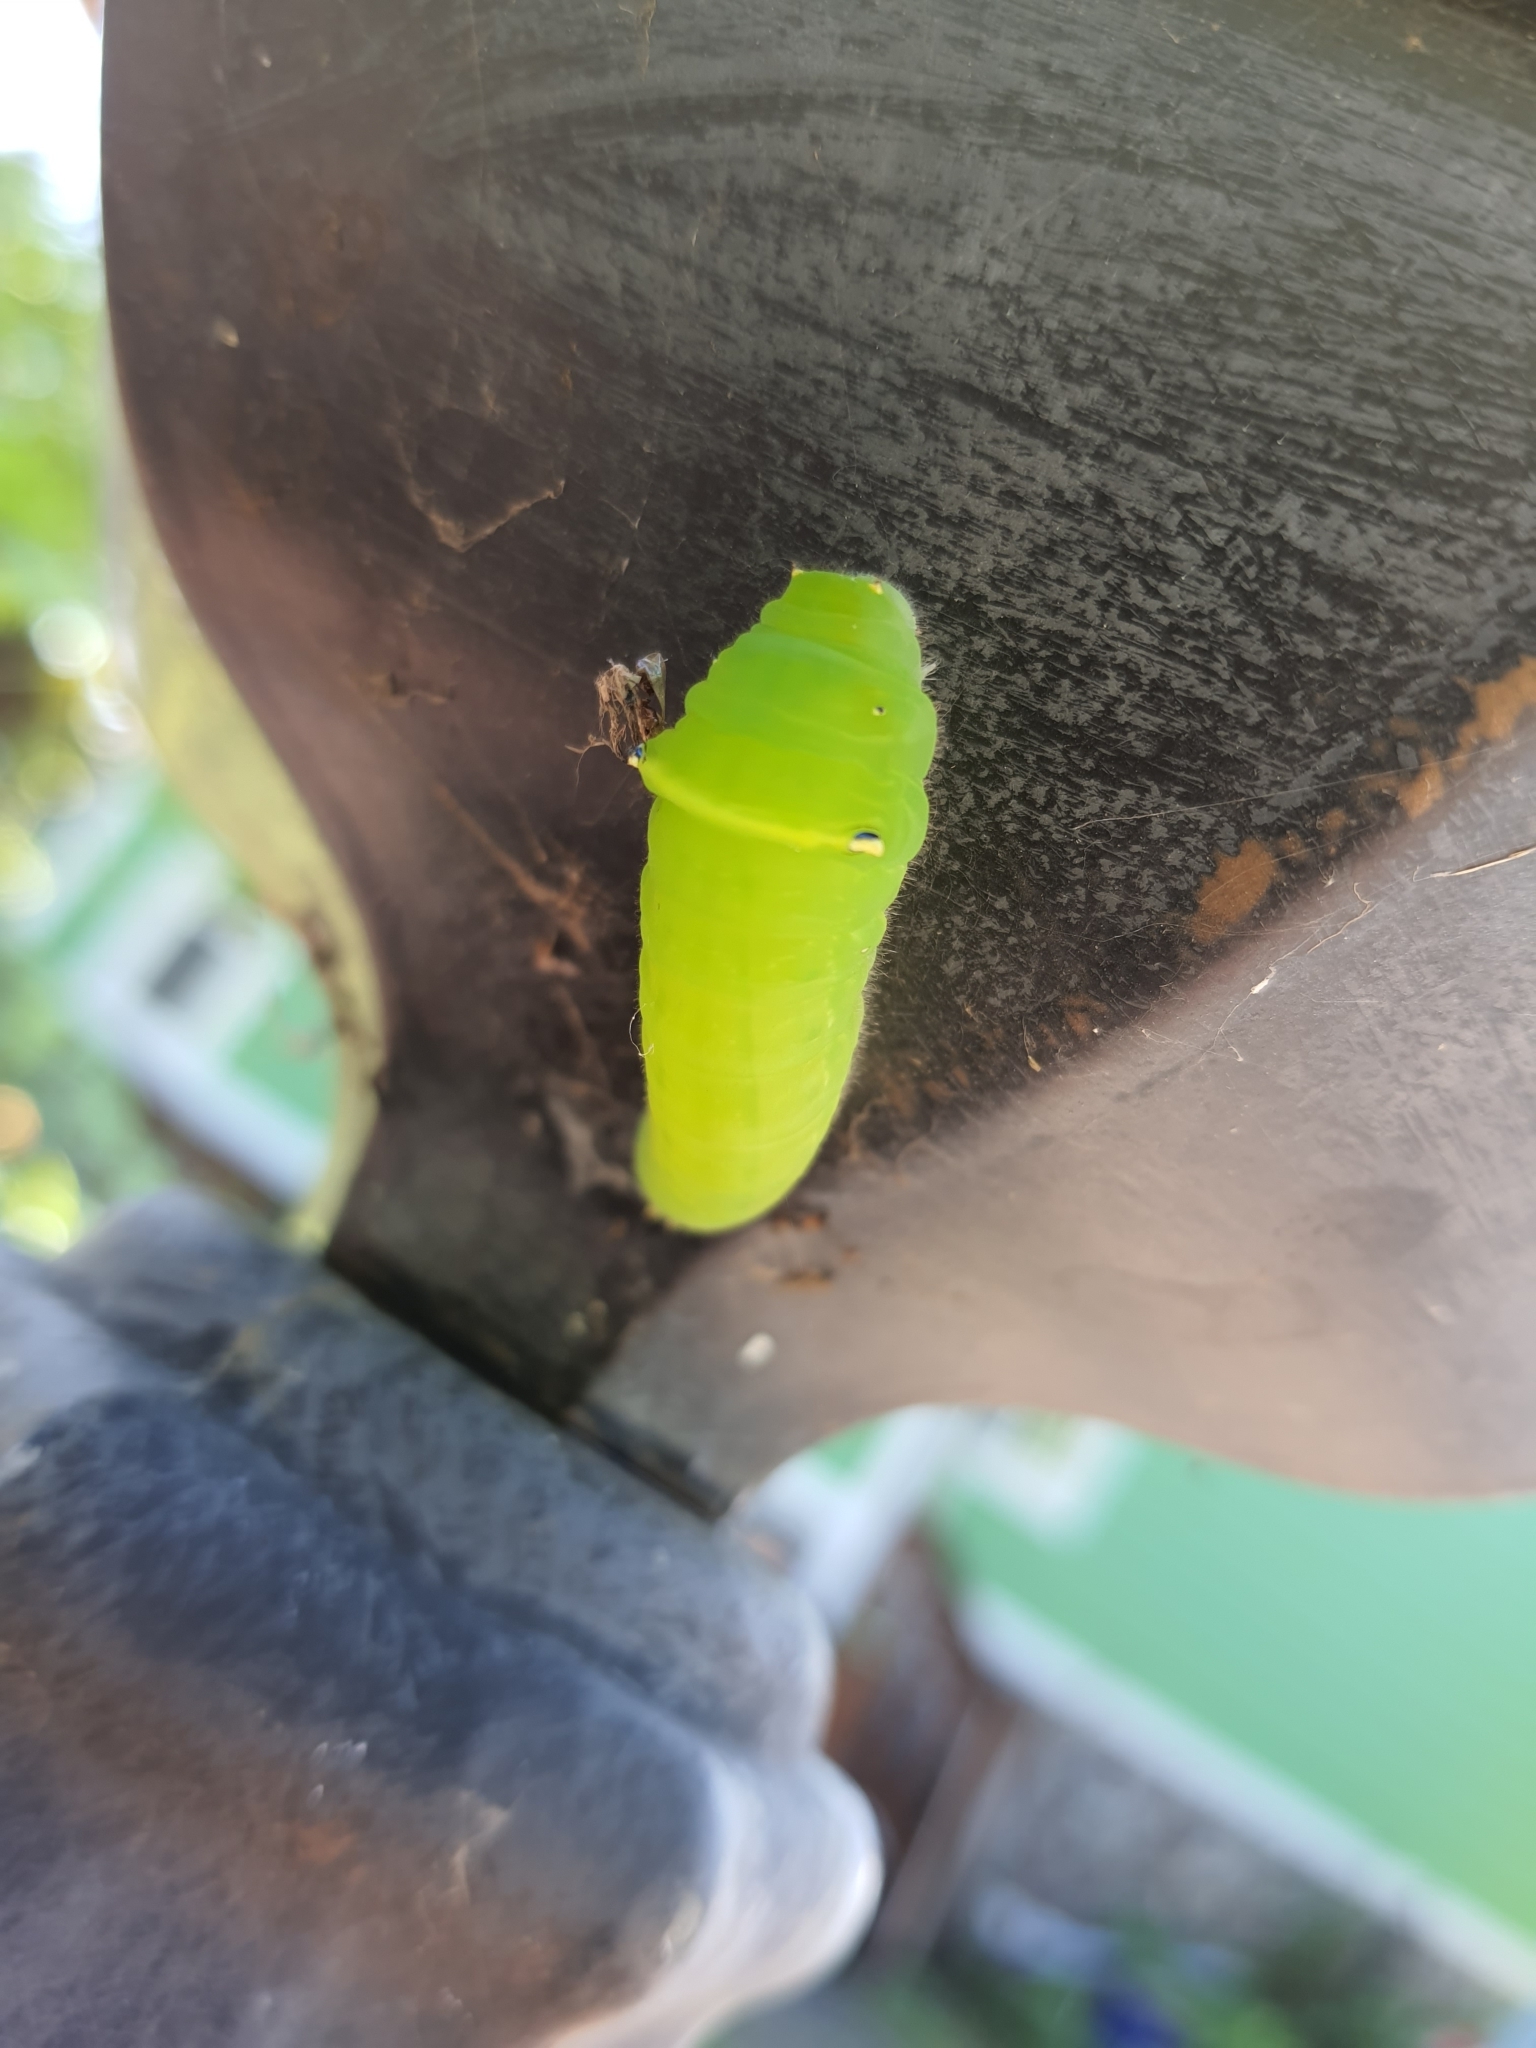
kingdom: Fungi
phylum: Ascomycota
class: Sordariomycetes
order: Microascales
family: Microascaceae
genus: Graphium
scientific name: Graphium sarpedon
